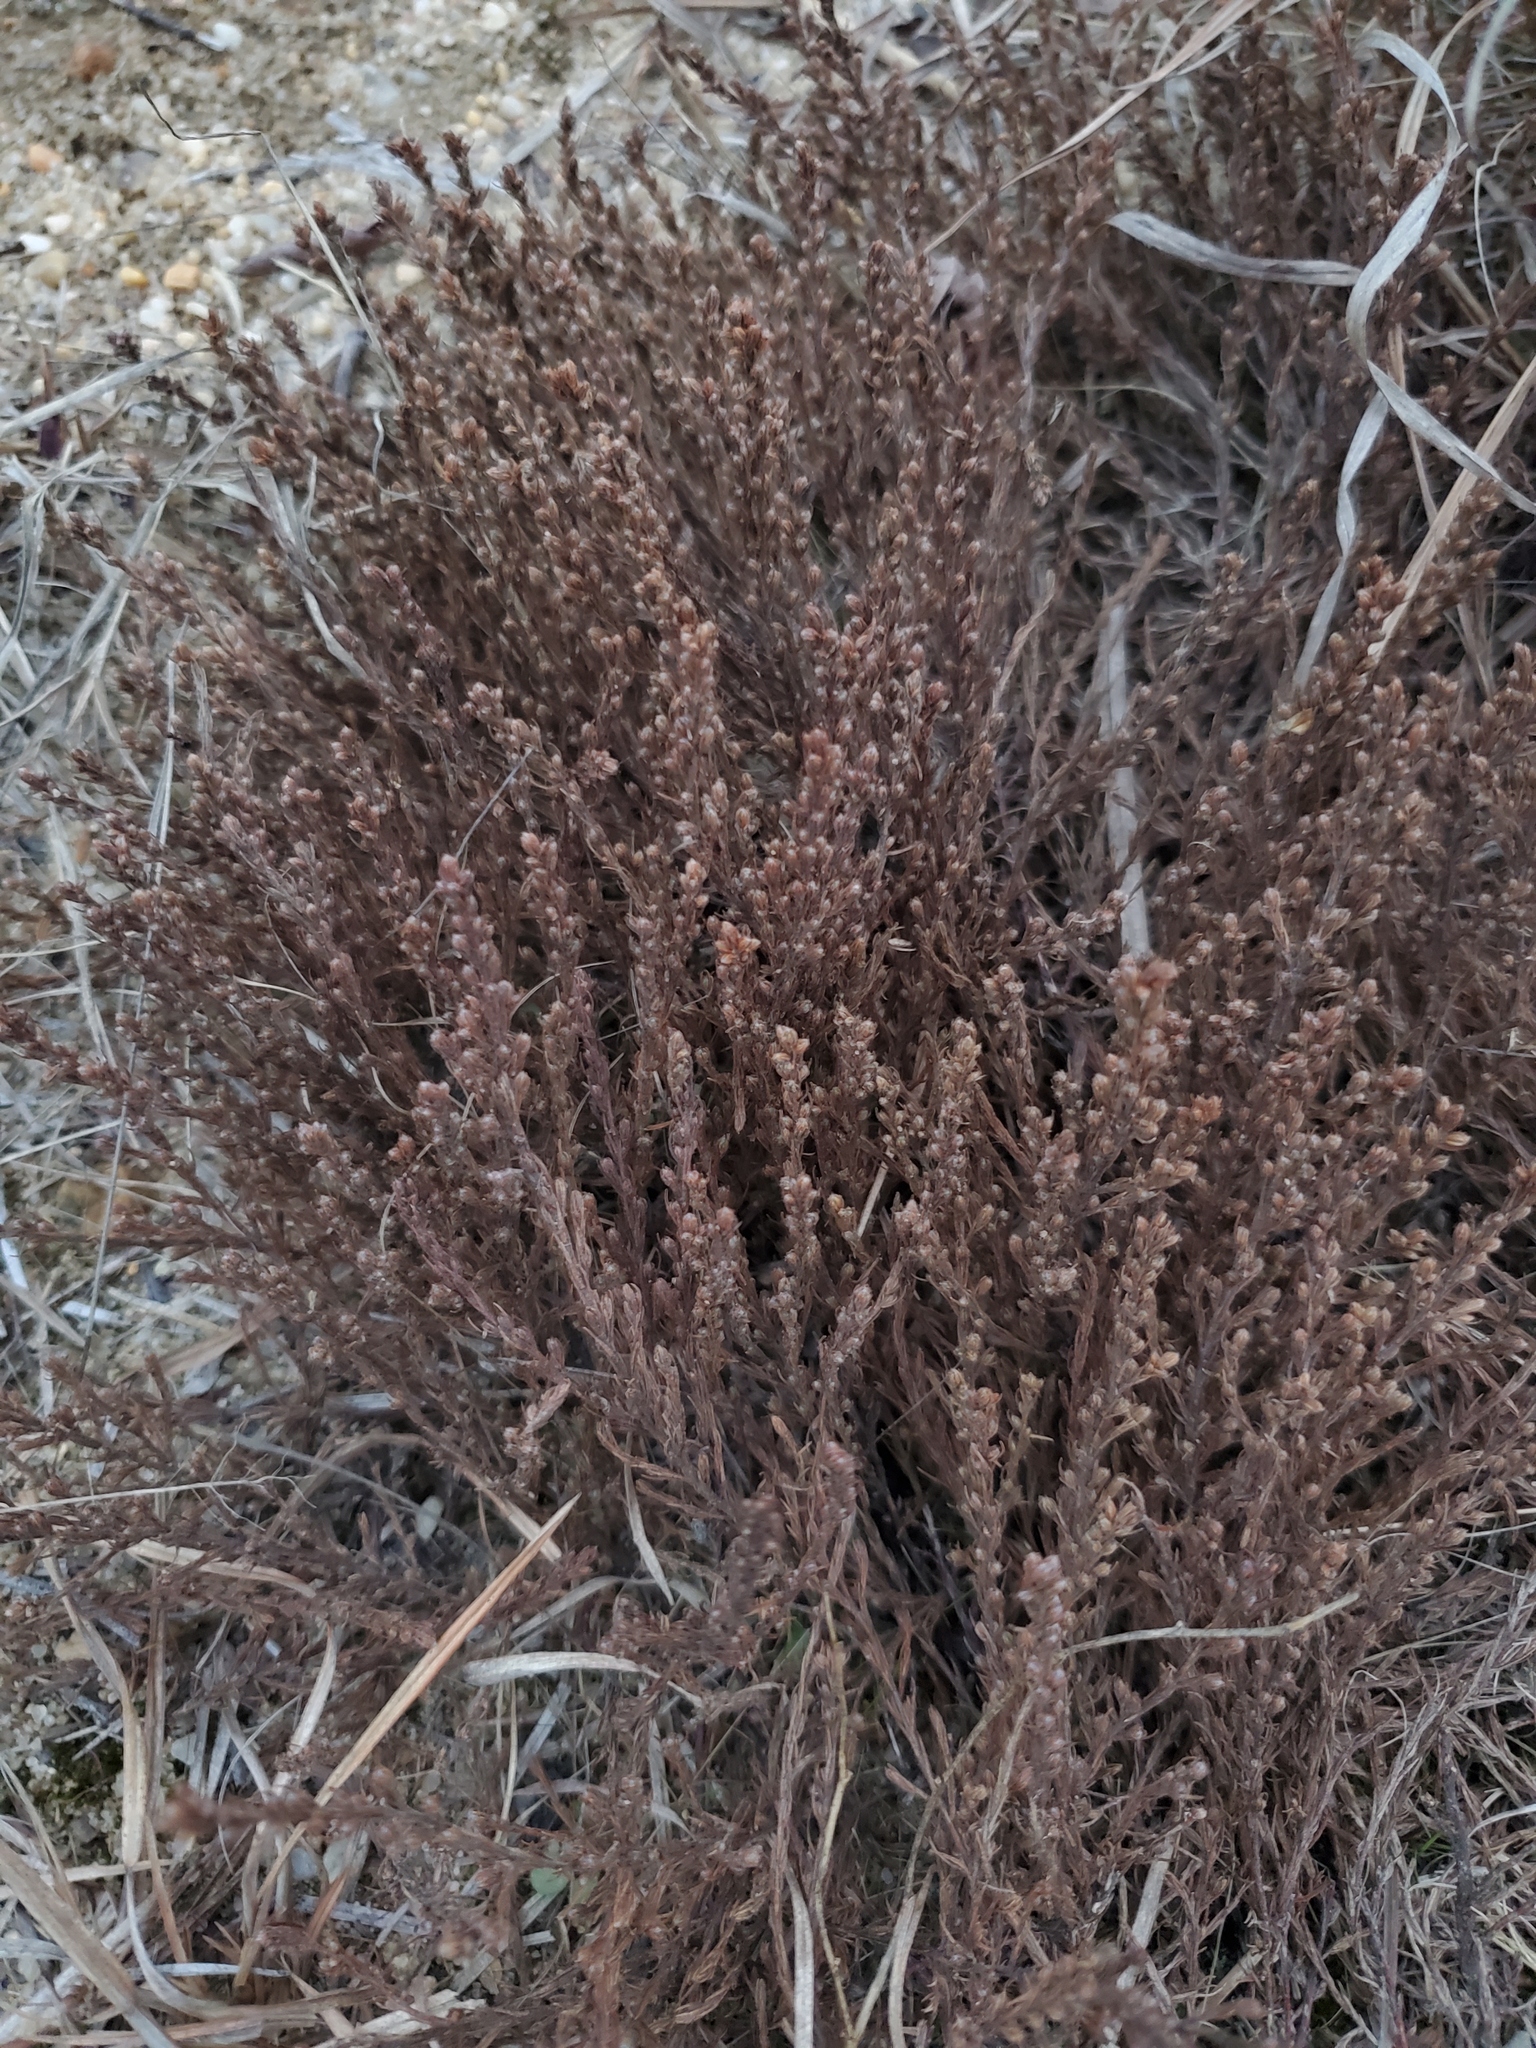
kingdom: Plantae
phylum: Tracheophyta
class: Magnoliopsida
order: Malvales
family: Cistaceae
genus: Hudsonia
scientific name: Hudsonia ericoides
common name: Golden-heather
